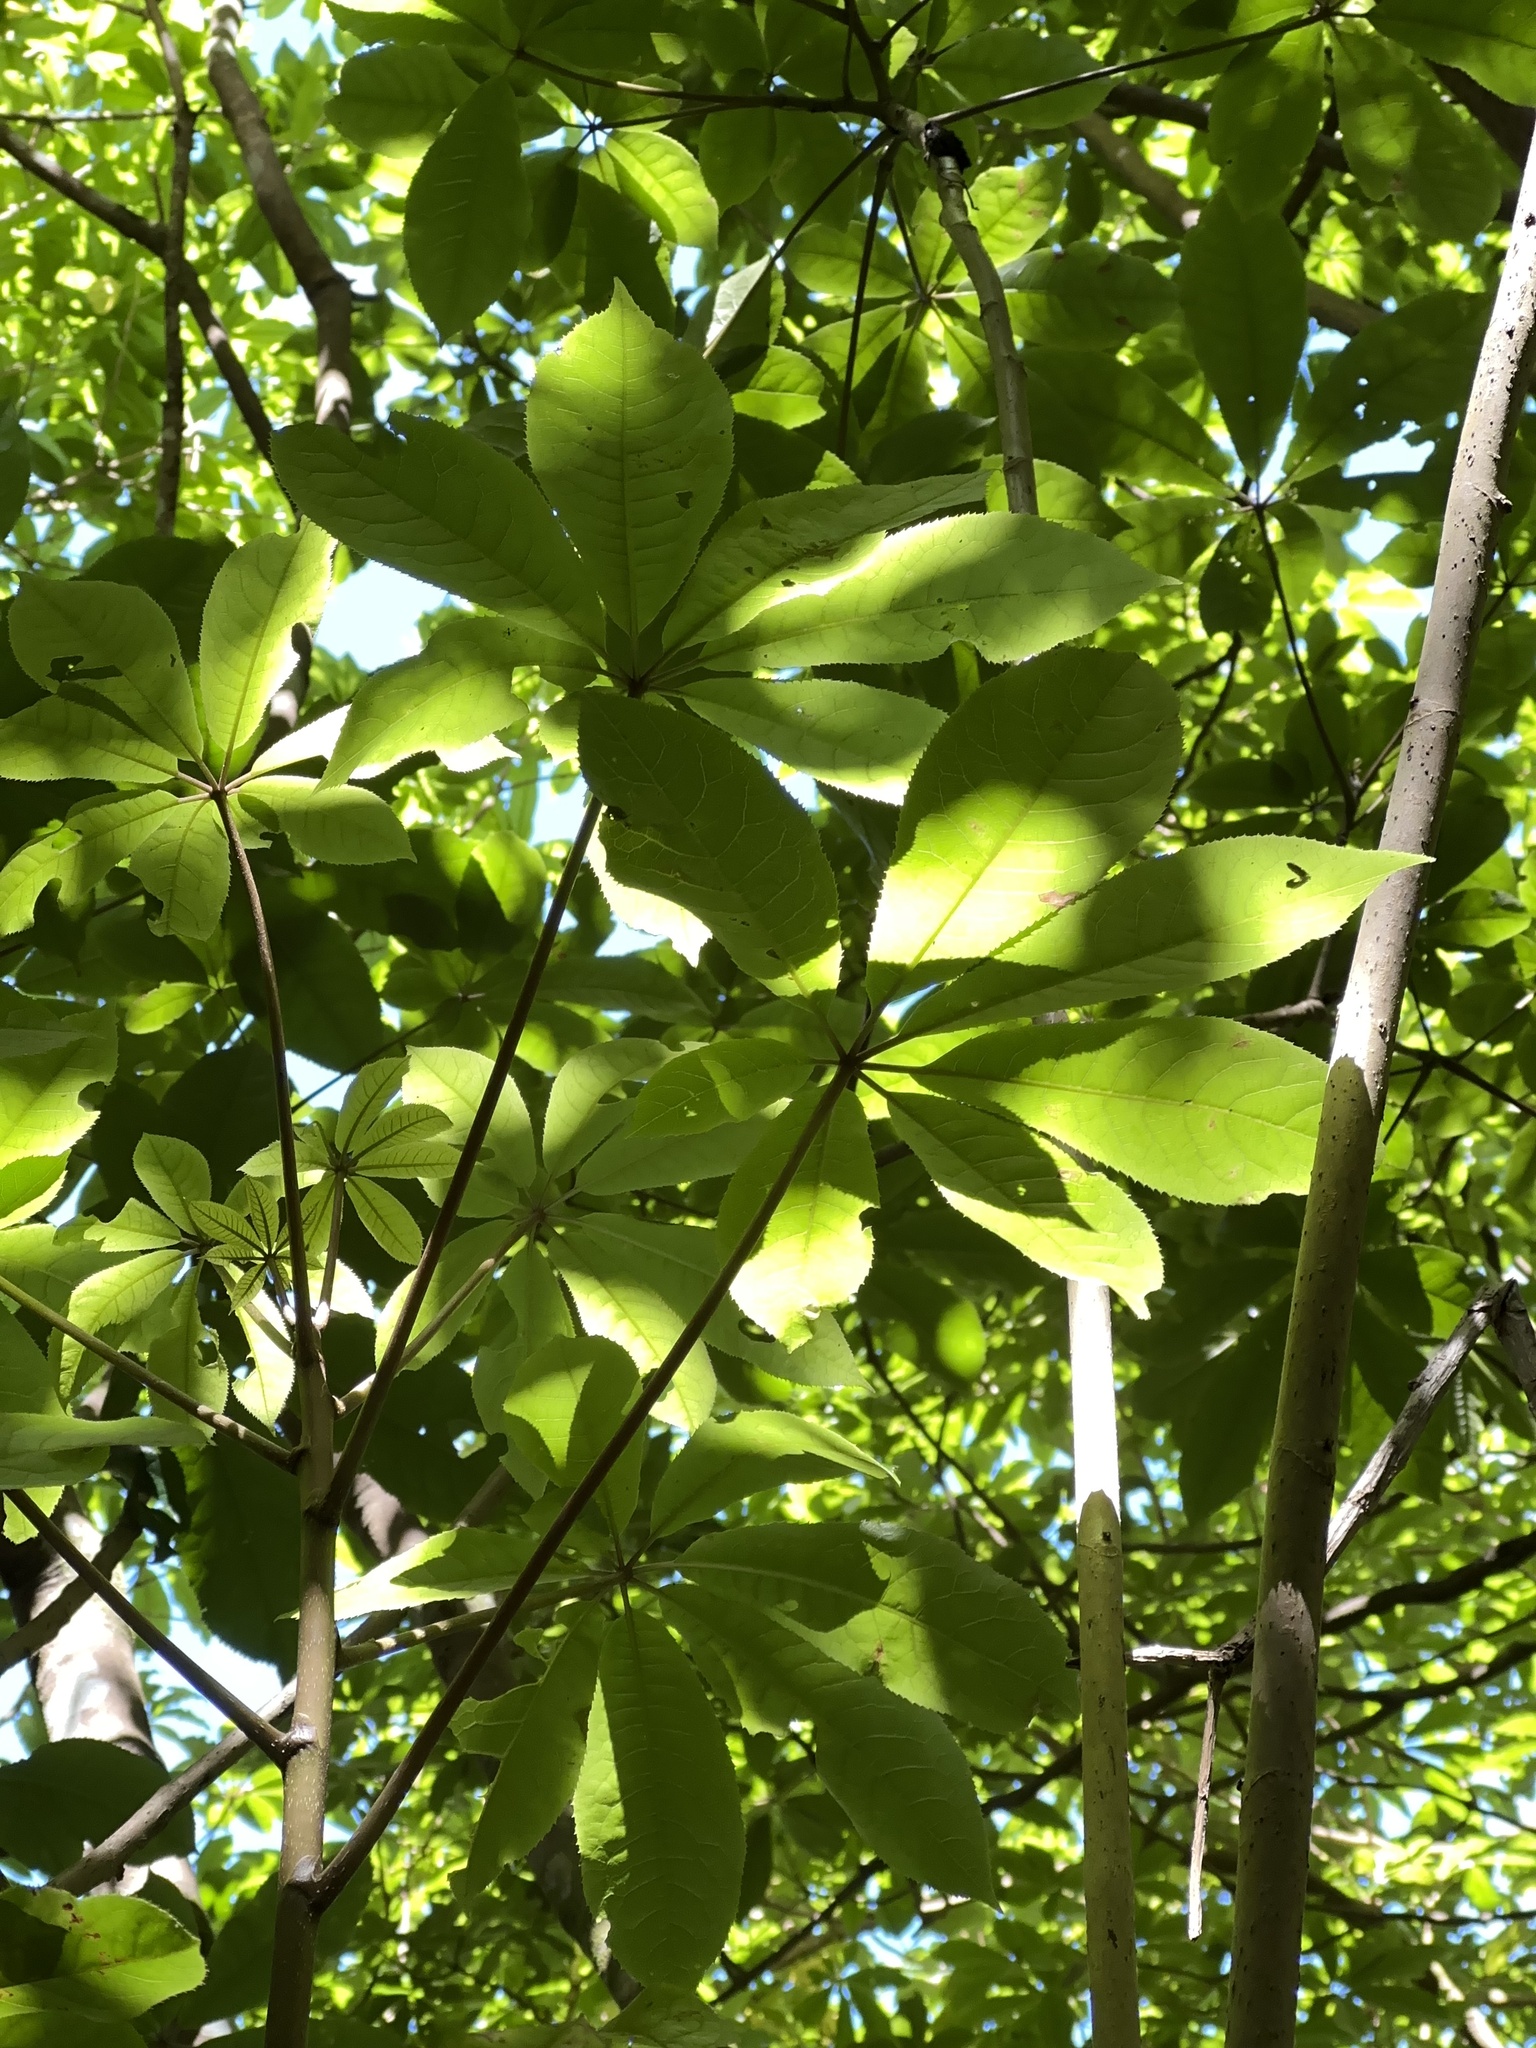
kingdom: Plantae
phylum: Tracheophyta
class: Magnoliopsida
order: Apiales
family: Araliaceae
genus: Schefflera
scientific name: Schefflera digitata
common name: Pate
